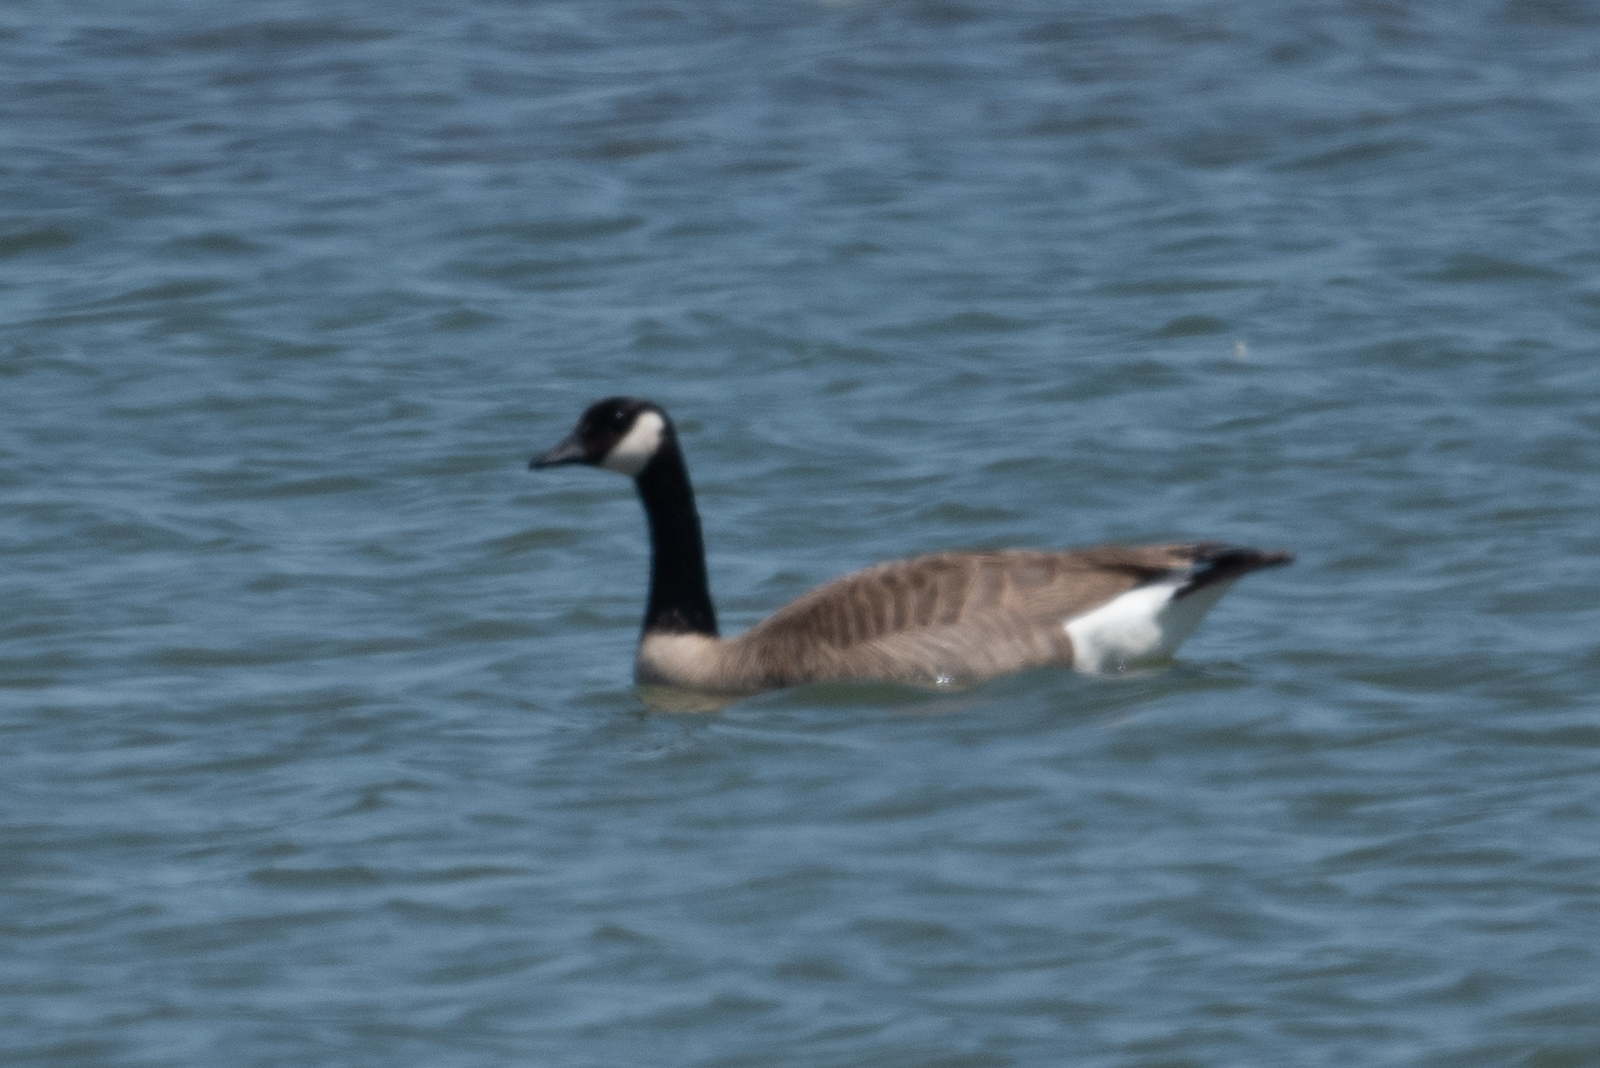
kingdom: Animalia
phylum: Chordata
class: Aves
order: Anseriformes
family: Anatidae
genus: Branta
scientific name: Branta canadensis
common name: Canada goose
